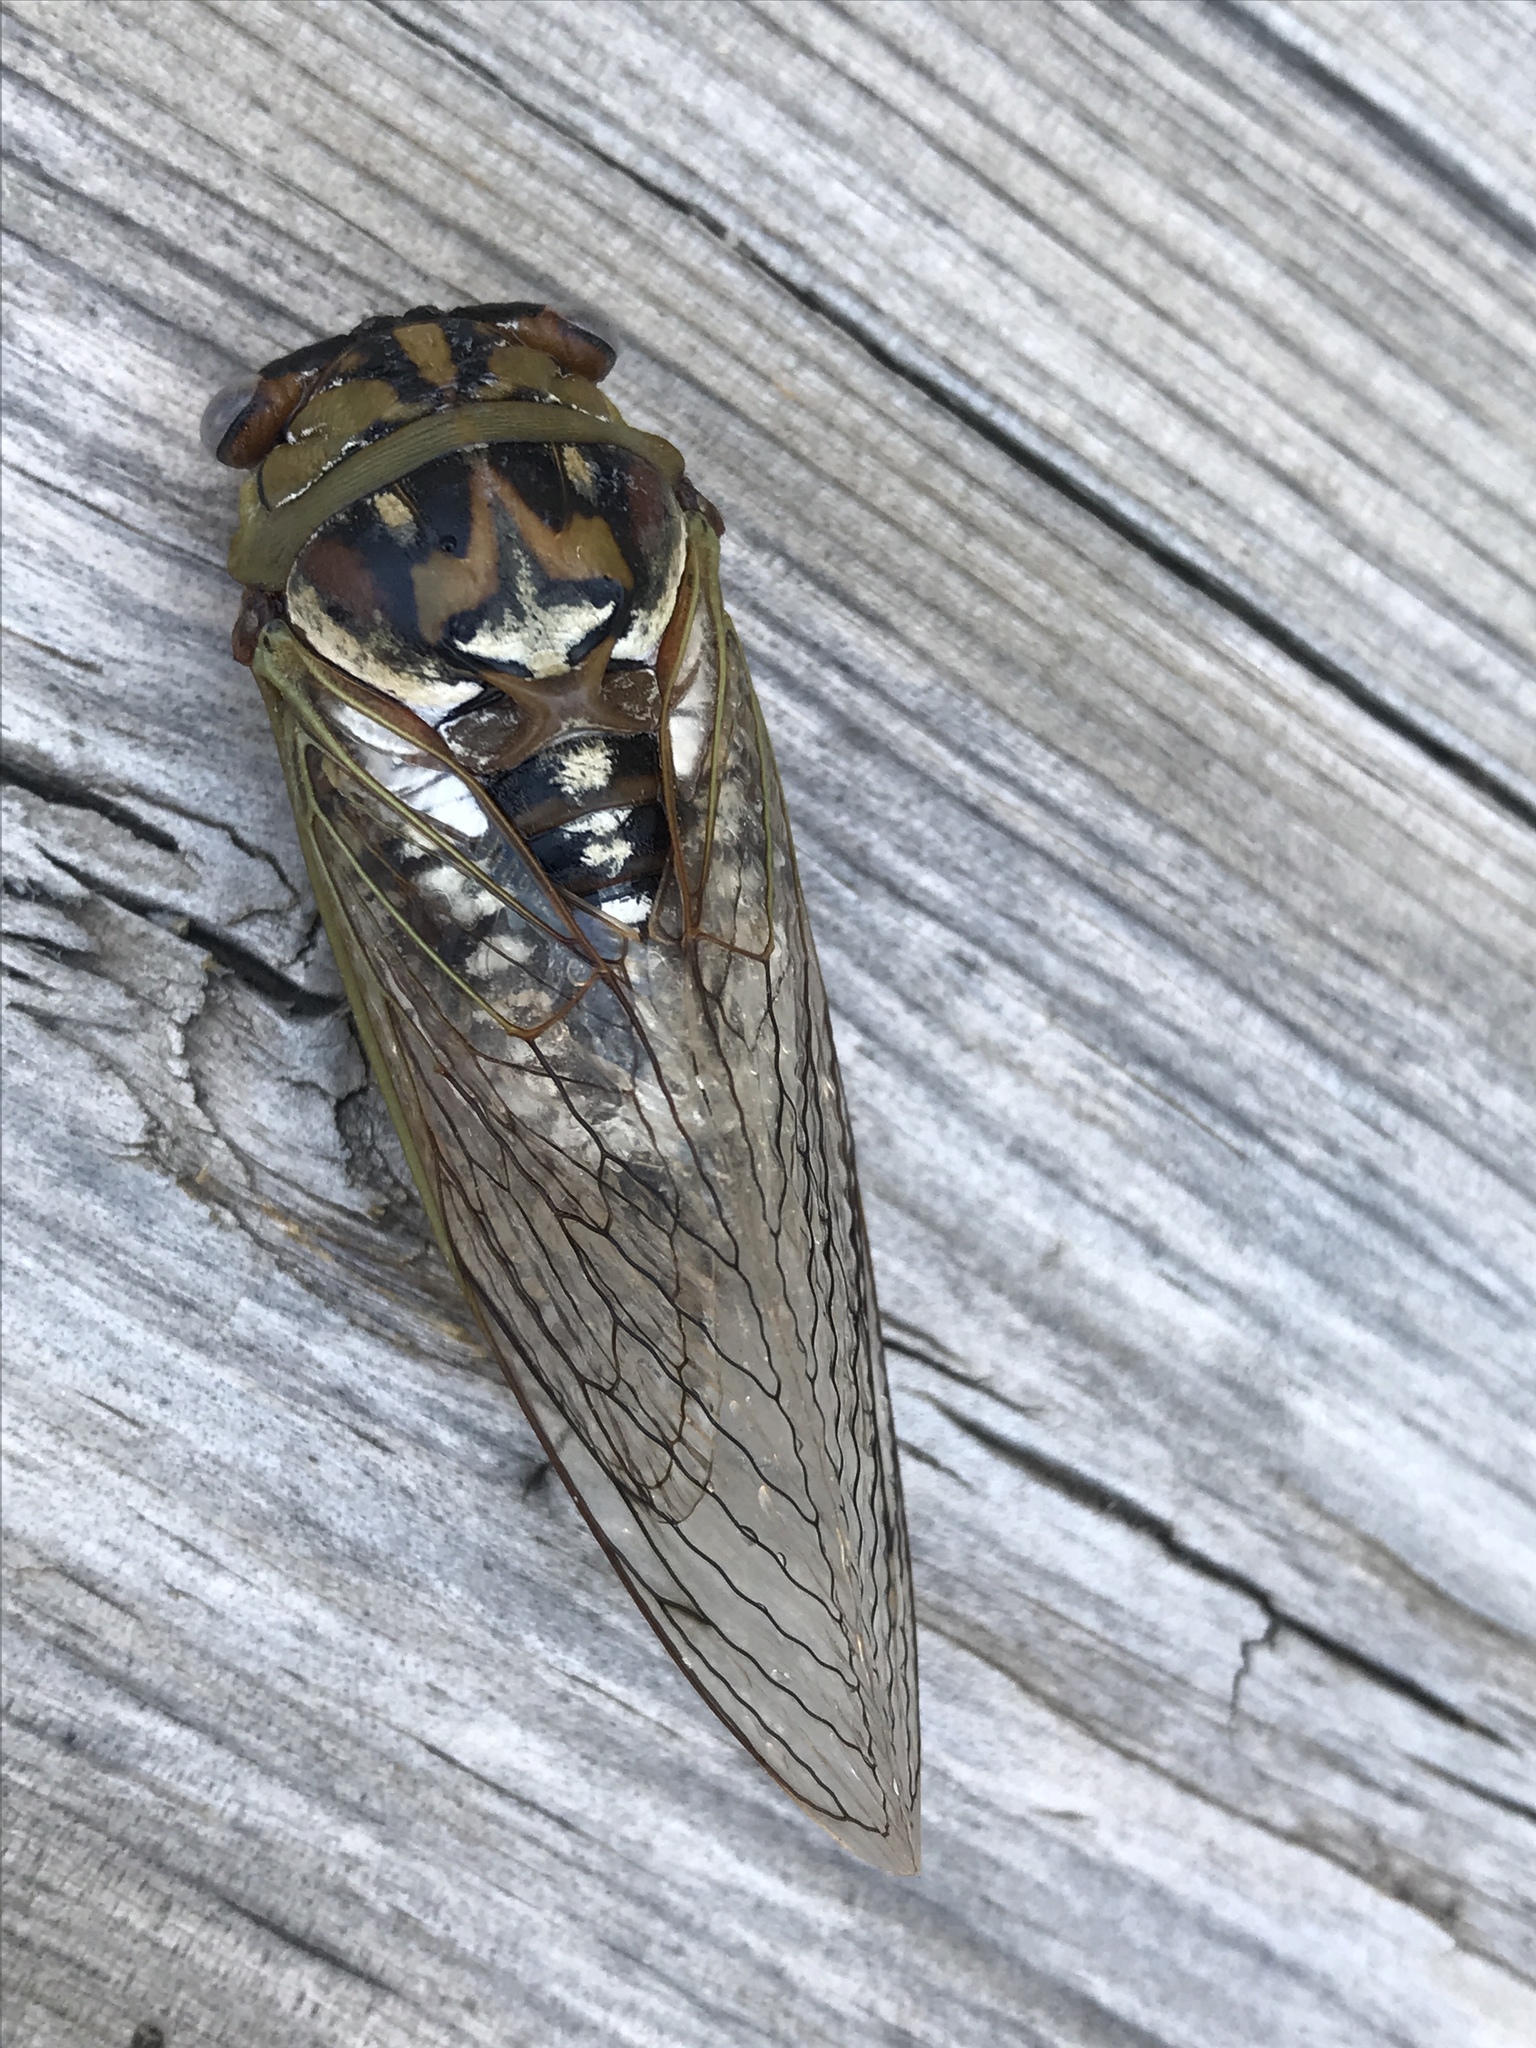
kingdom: Animalia
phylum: Arthropoda
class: Insecta
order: Hemiptera
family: Cicadidae
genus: Megatibicen
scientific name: Megatibicen dealbatus
